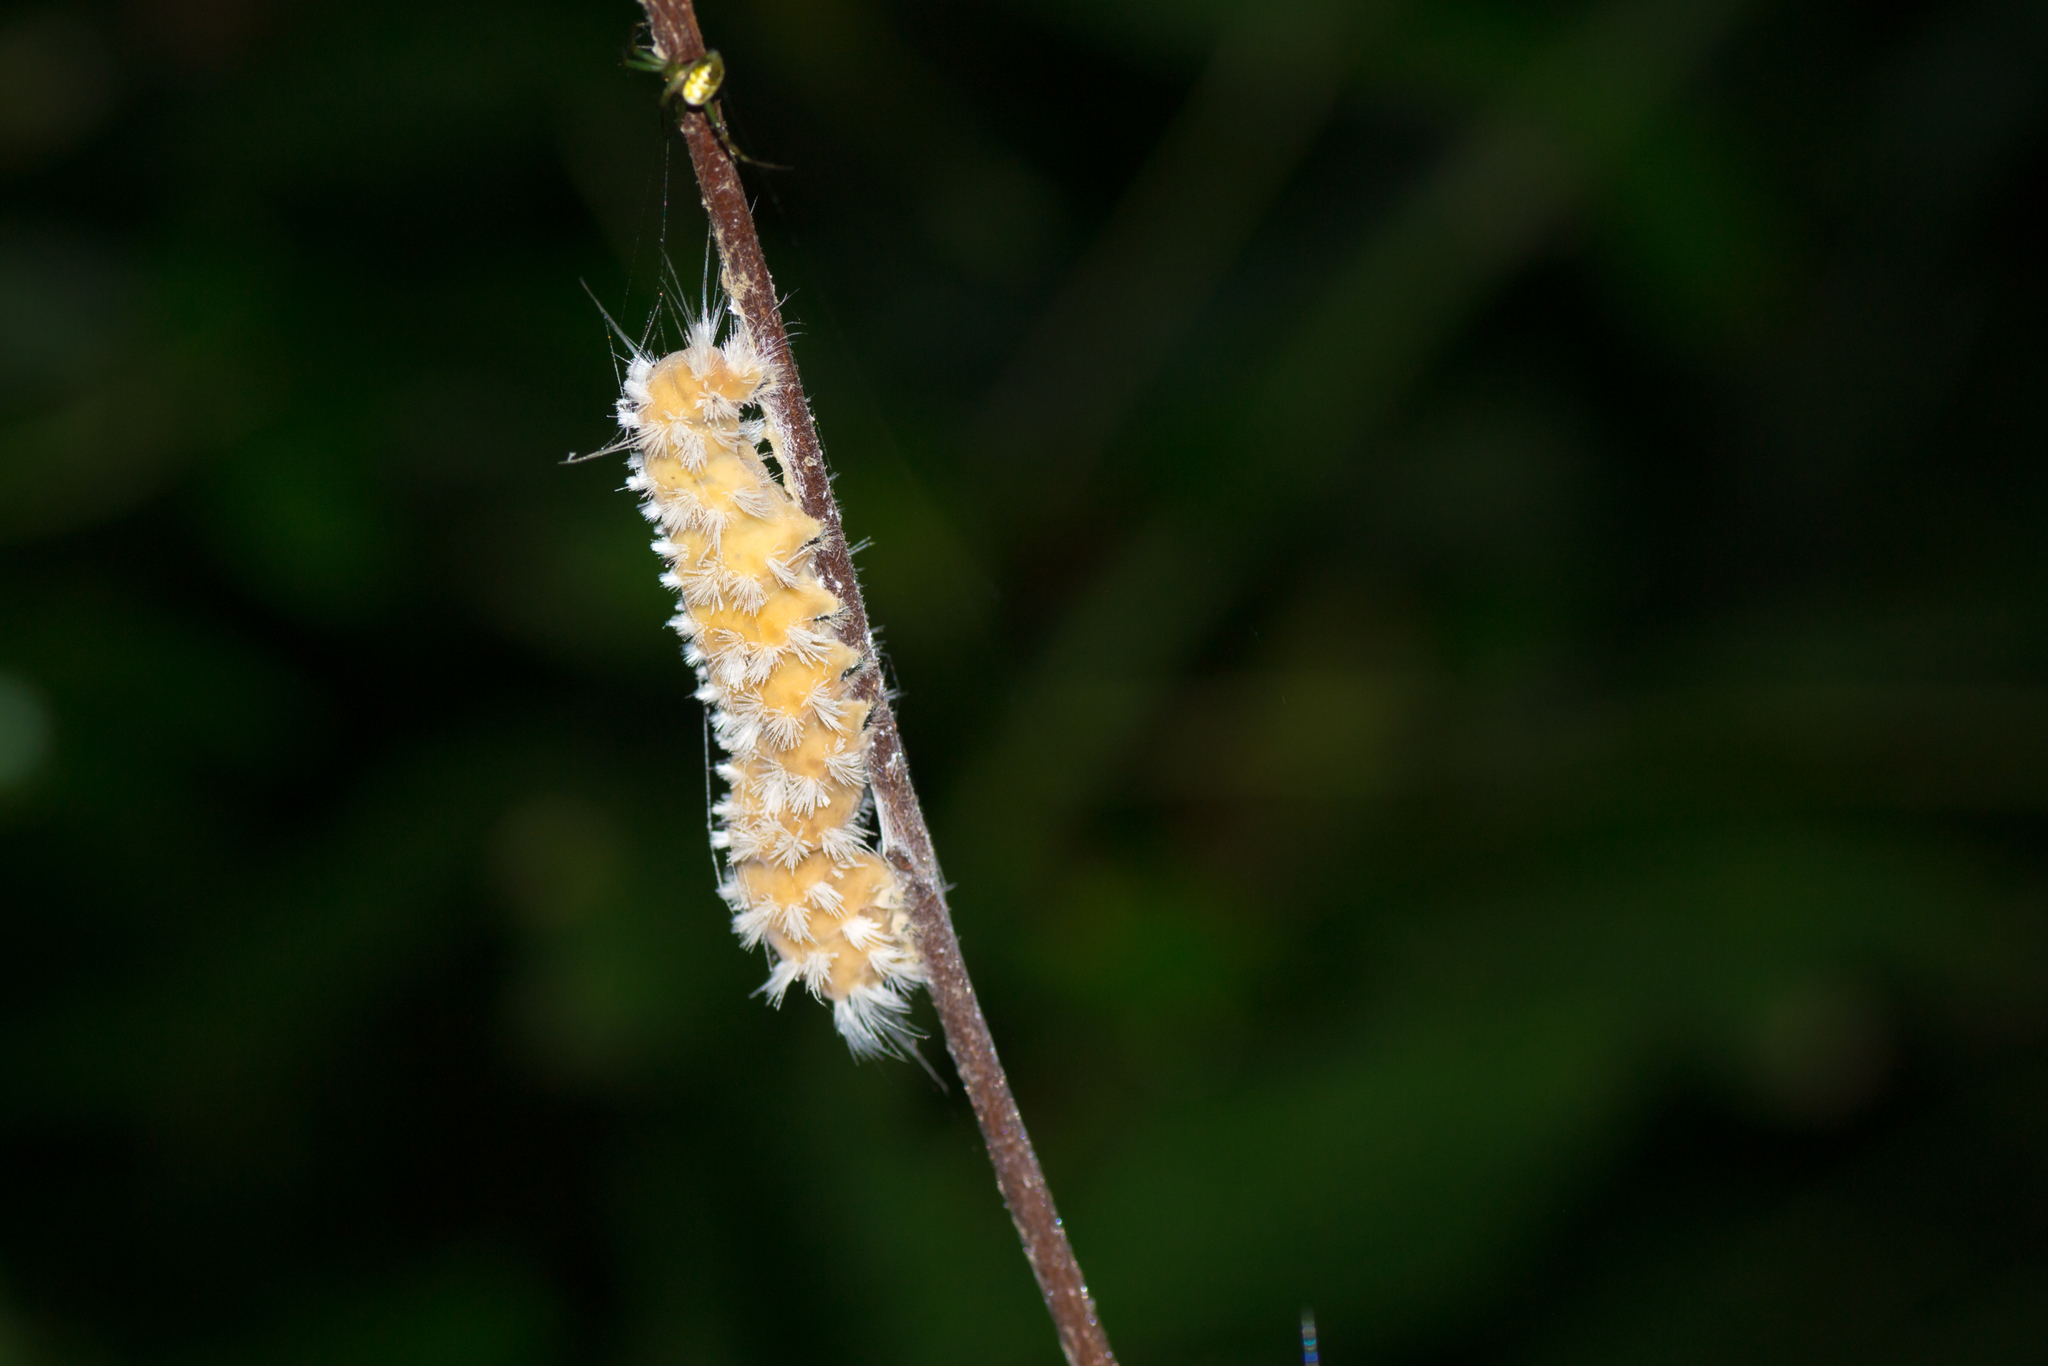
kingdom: Animalia
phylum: Arthropoda
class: Insecta
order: Lepidoptera
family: Erebidae
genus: Cycnia
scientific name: Cycnia collaris
